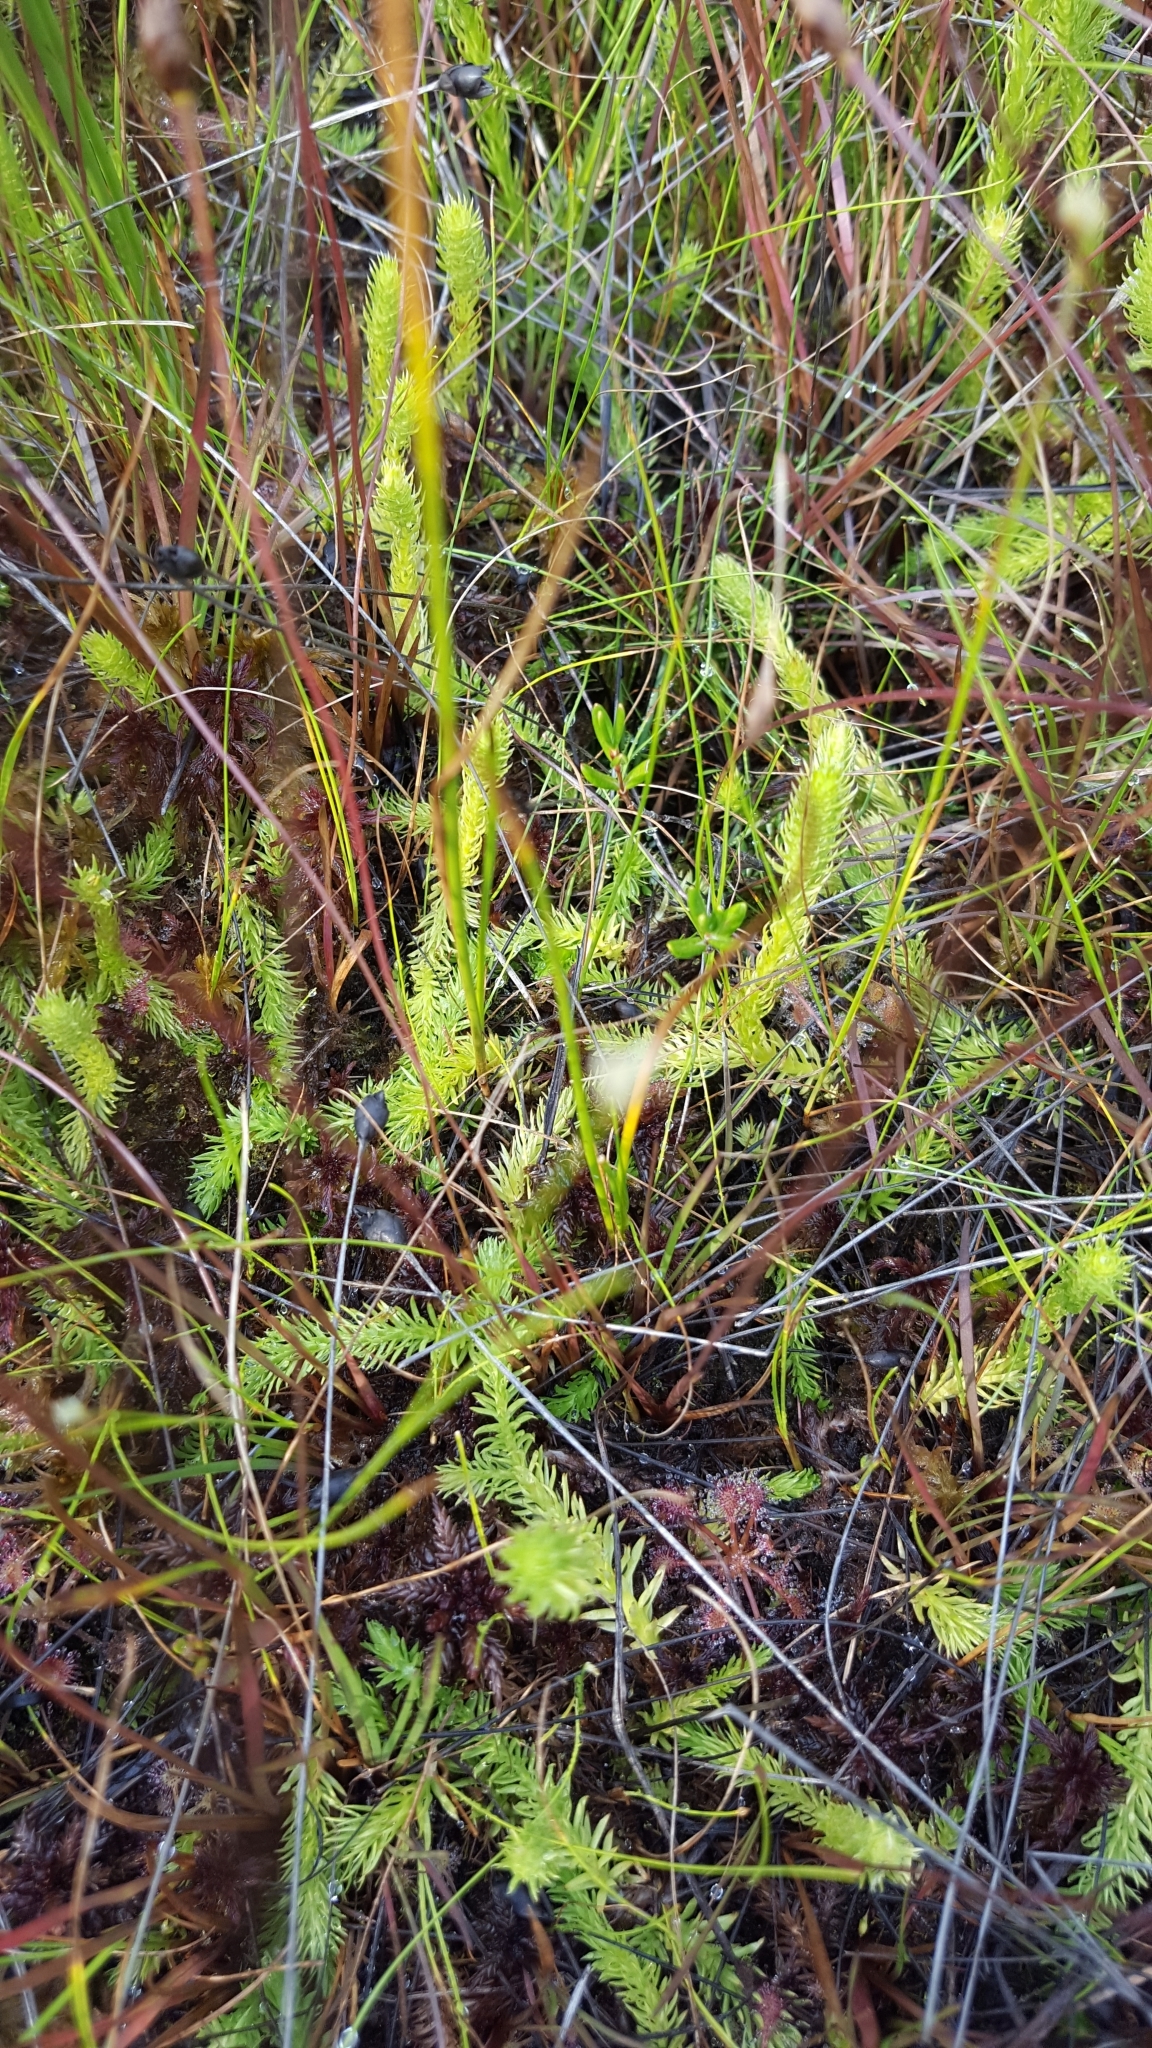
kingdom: Plantae
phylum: Tracheophyta
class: Lycopodiopsida
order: Lycopodiales
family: Lycopodiaceae
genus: Lycopodiella
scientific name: Lycopodiella inundata
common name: Marsh clubmoss
